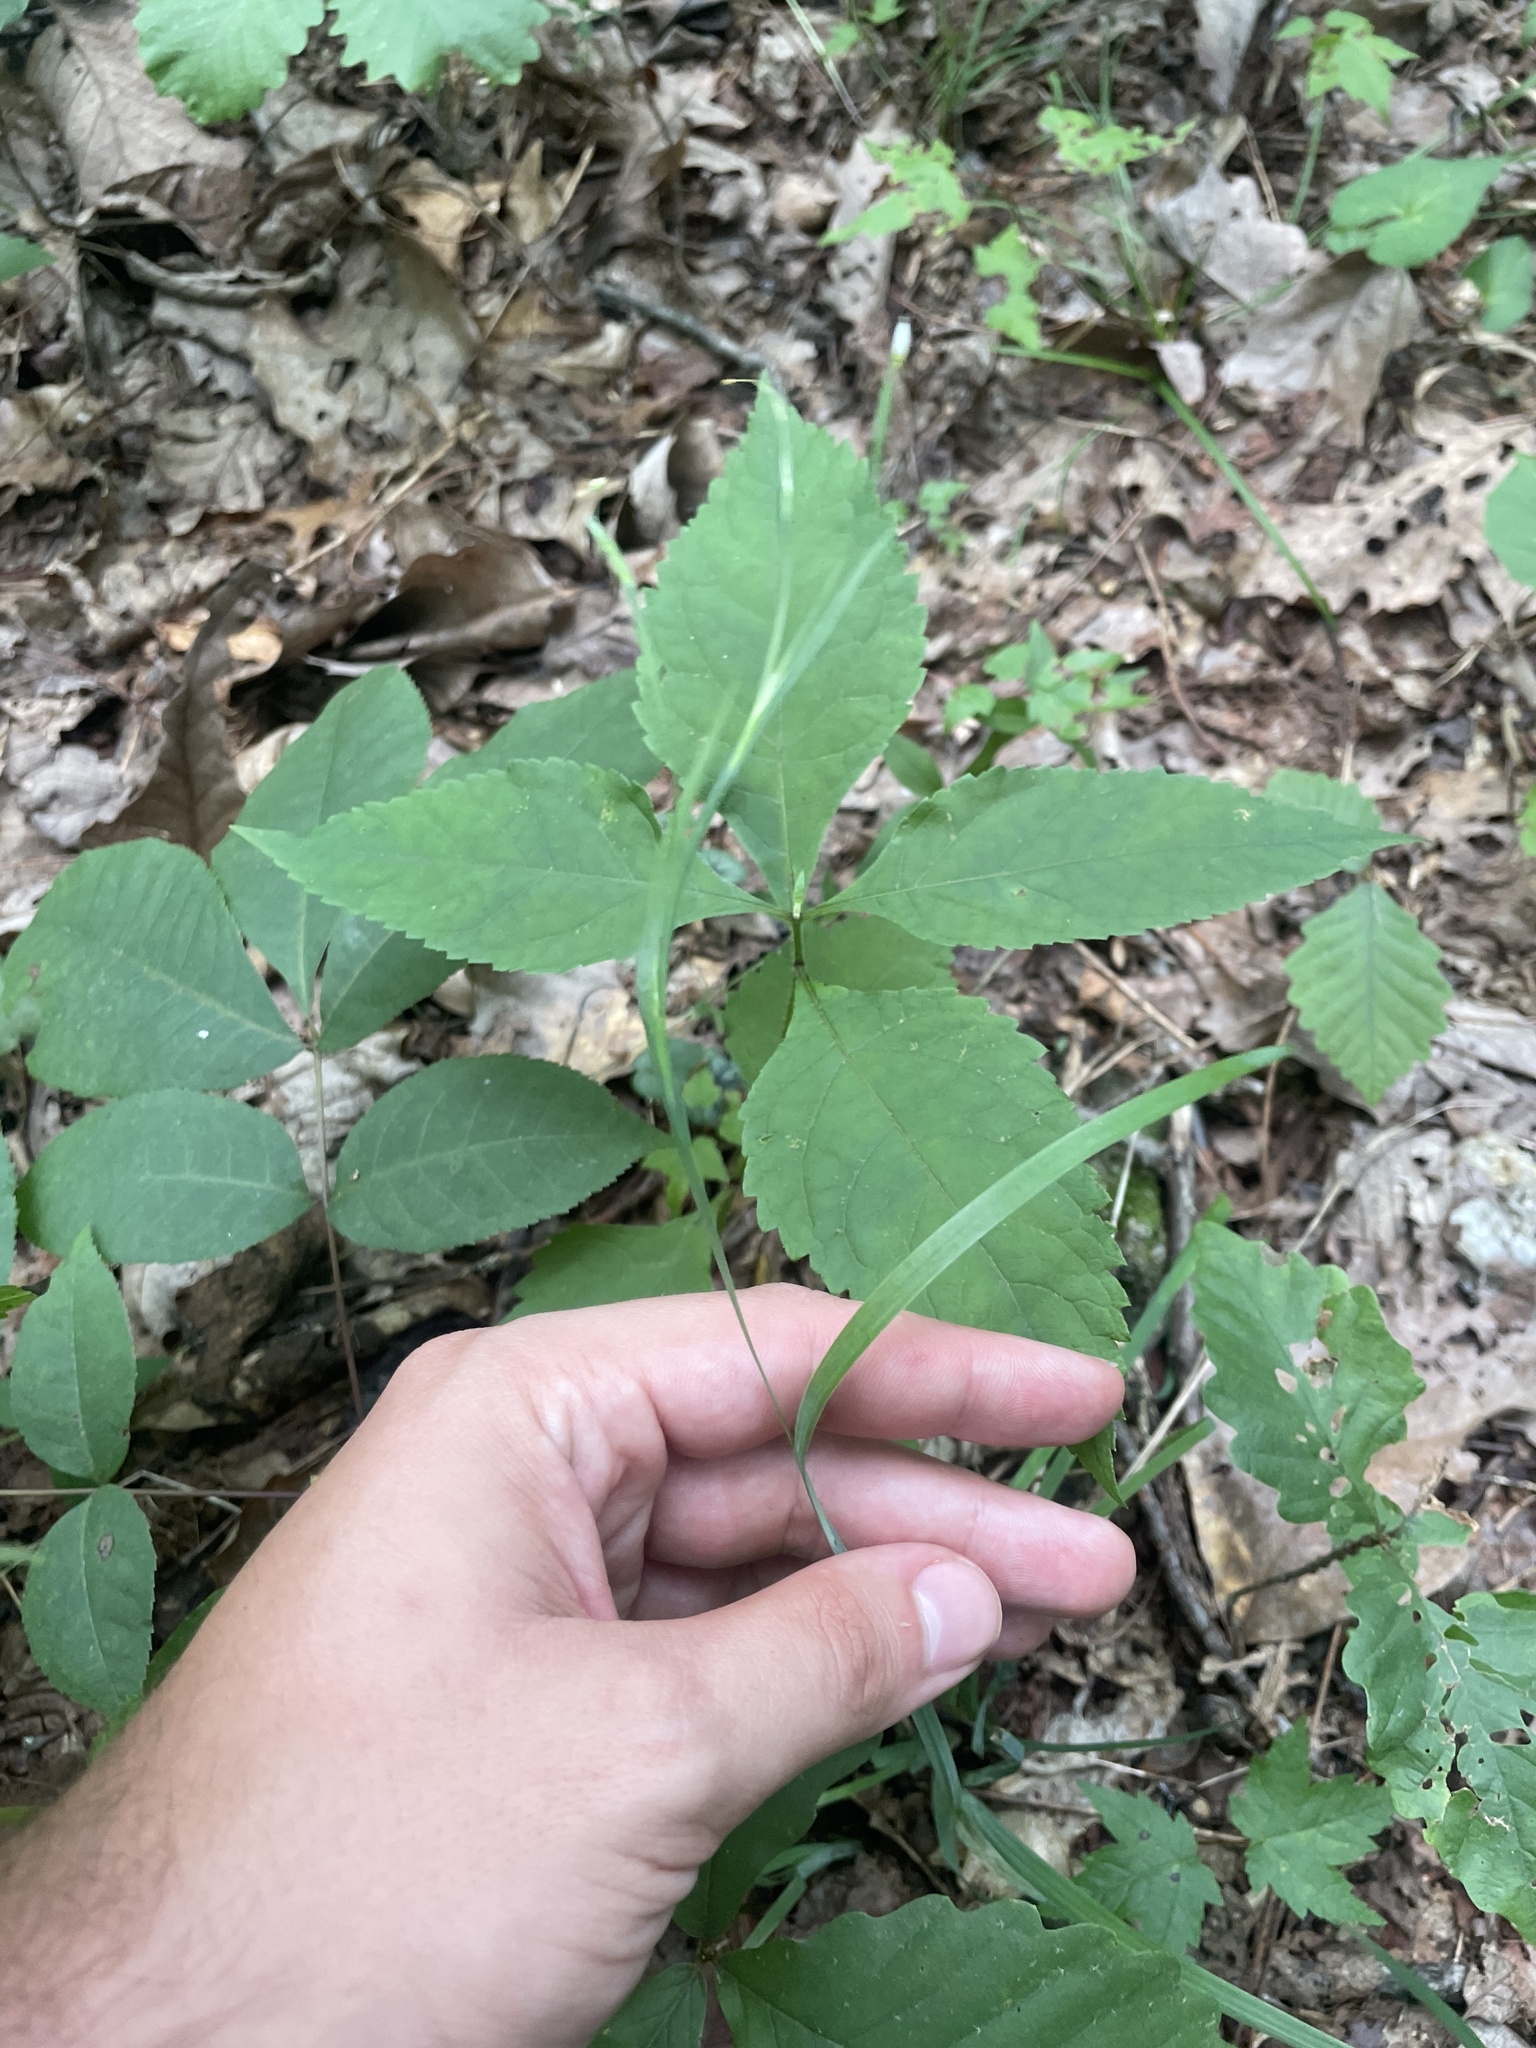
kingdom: Plantae
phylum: Tracheophyta
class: Liliopsida
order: Asparagales
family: Iridaceae
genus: Sisyrinchium
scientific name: Sisyrinchium dichotomum
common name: White irisette
